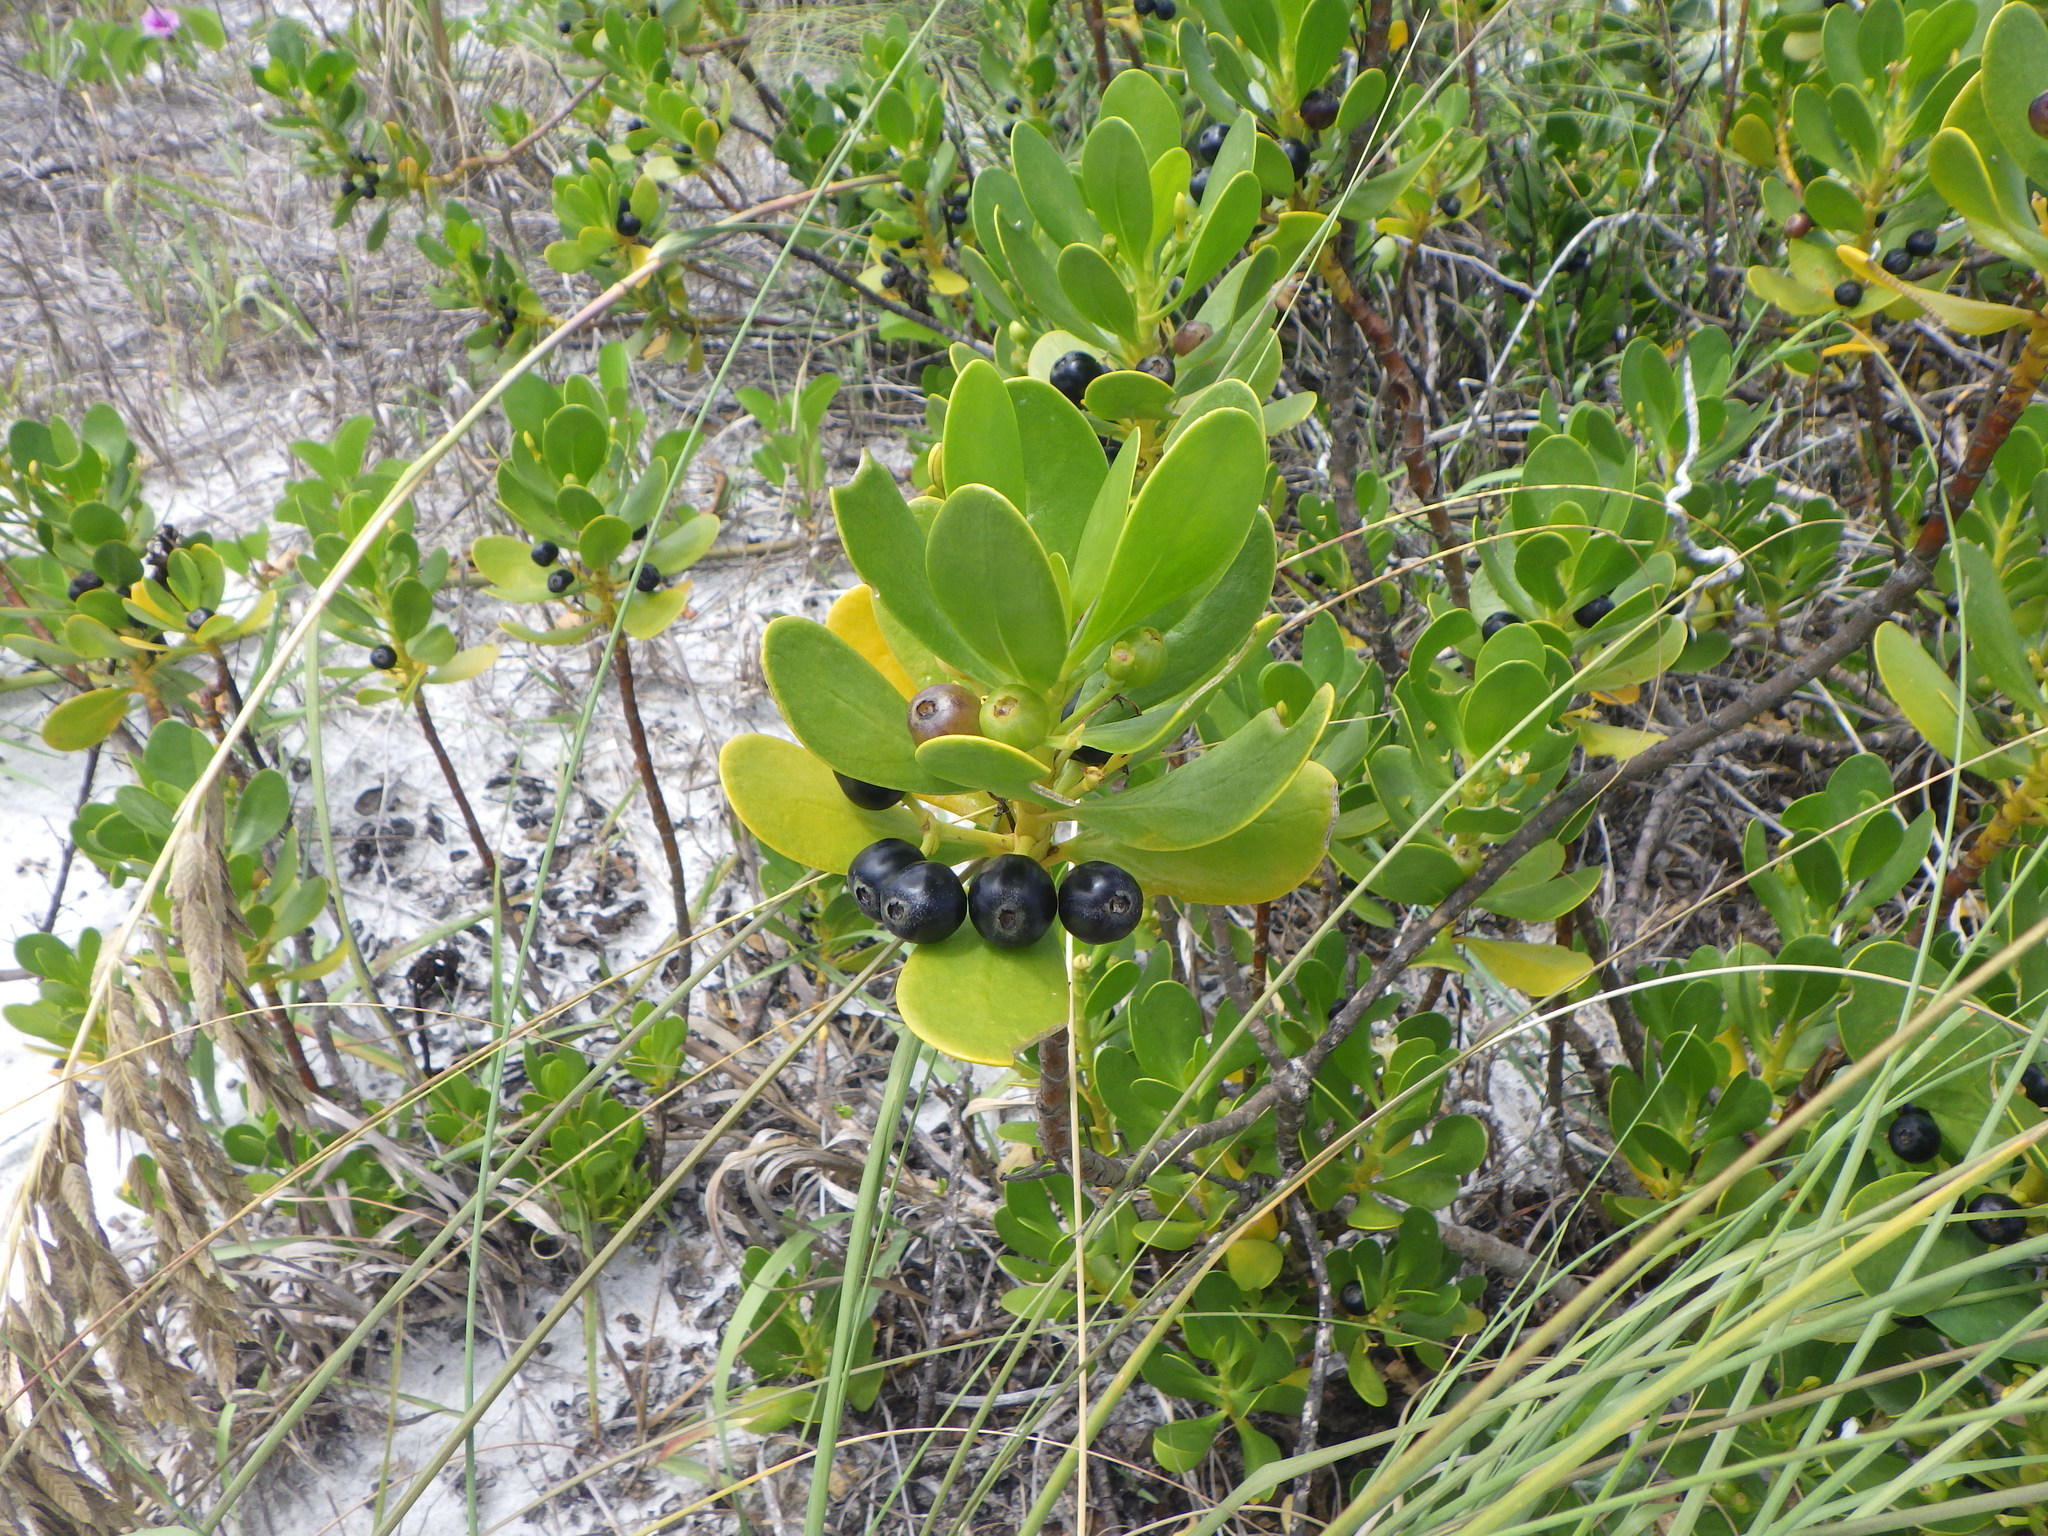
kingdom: Plantae
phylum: Tracheophyta
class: Magnoliopsida
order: Asterales
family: Goodeniaceae
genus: Scaevola
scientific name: Scaevola plumieri
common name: Gull feed
